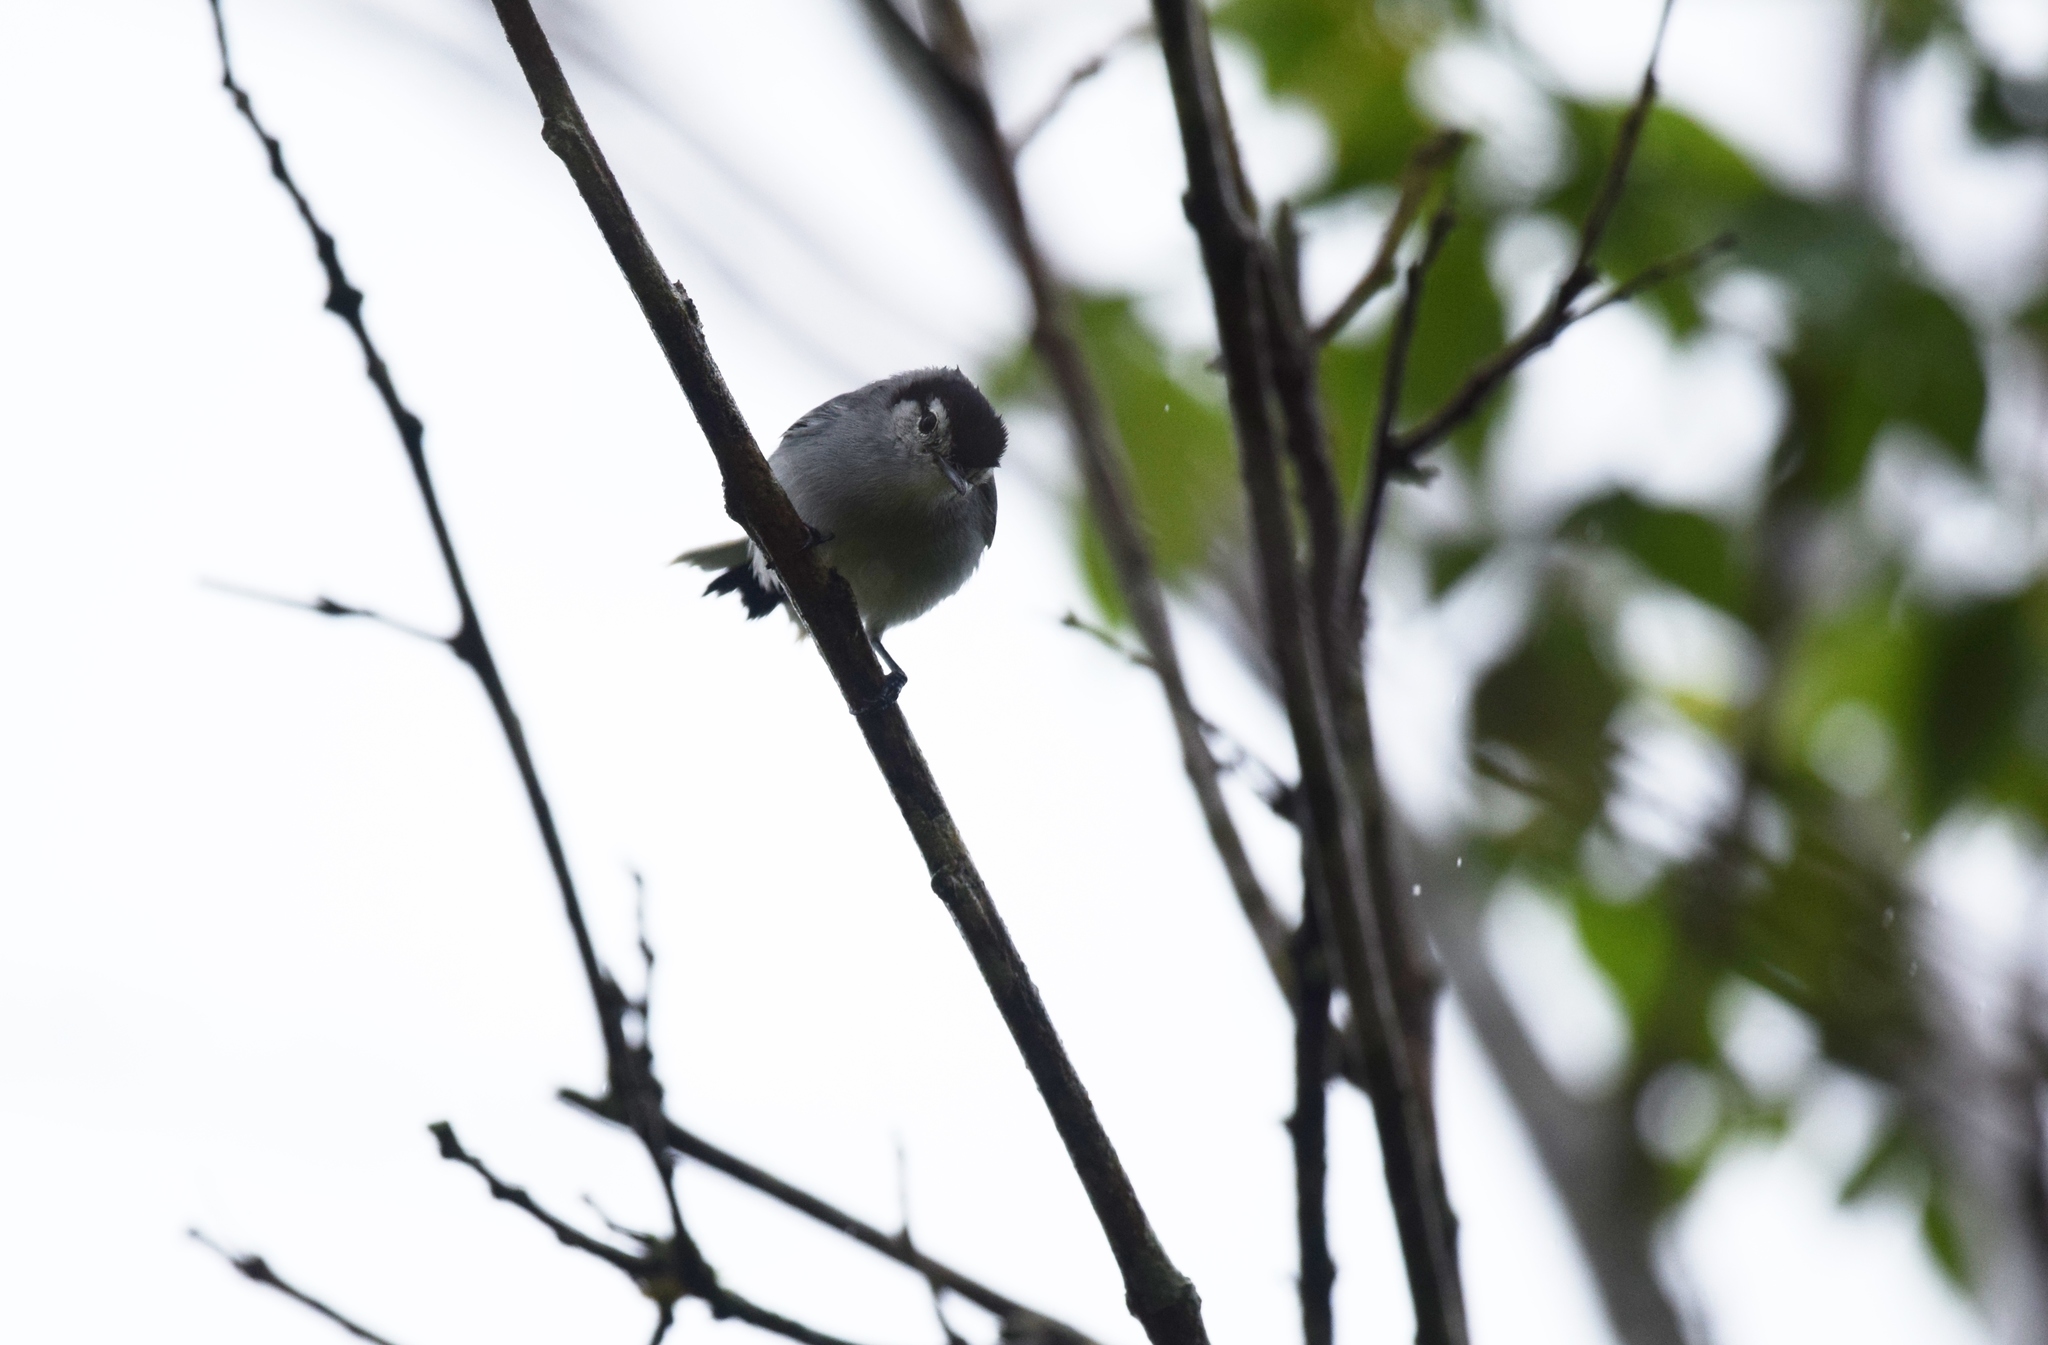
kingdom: Animalia
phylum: Chordata
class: Aves
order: Passeriformes
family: Polioptilidae
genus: Polioptila
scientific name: Polioptila plumbea
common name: Tropical gnatcatcher
